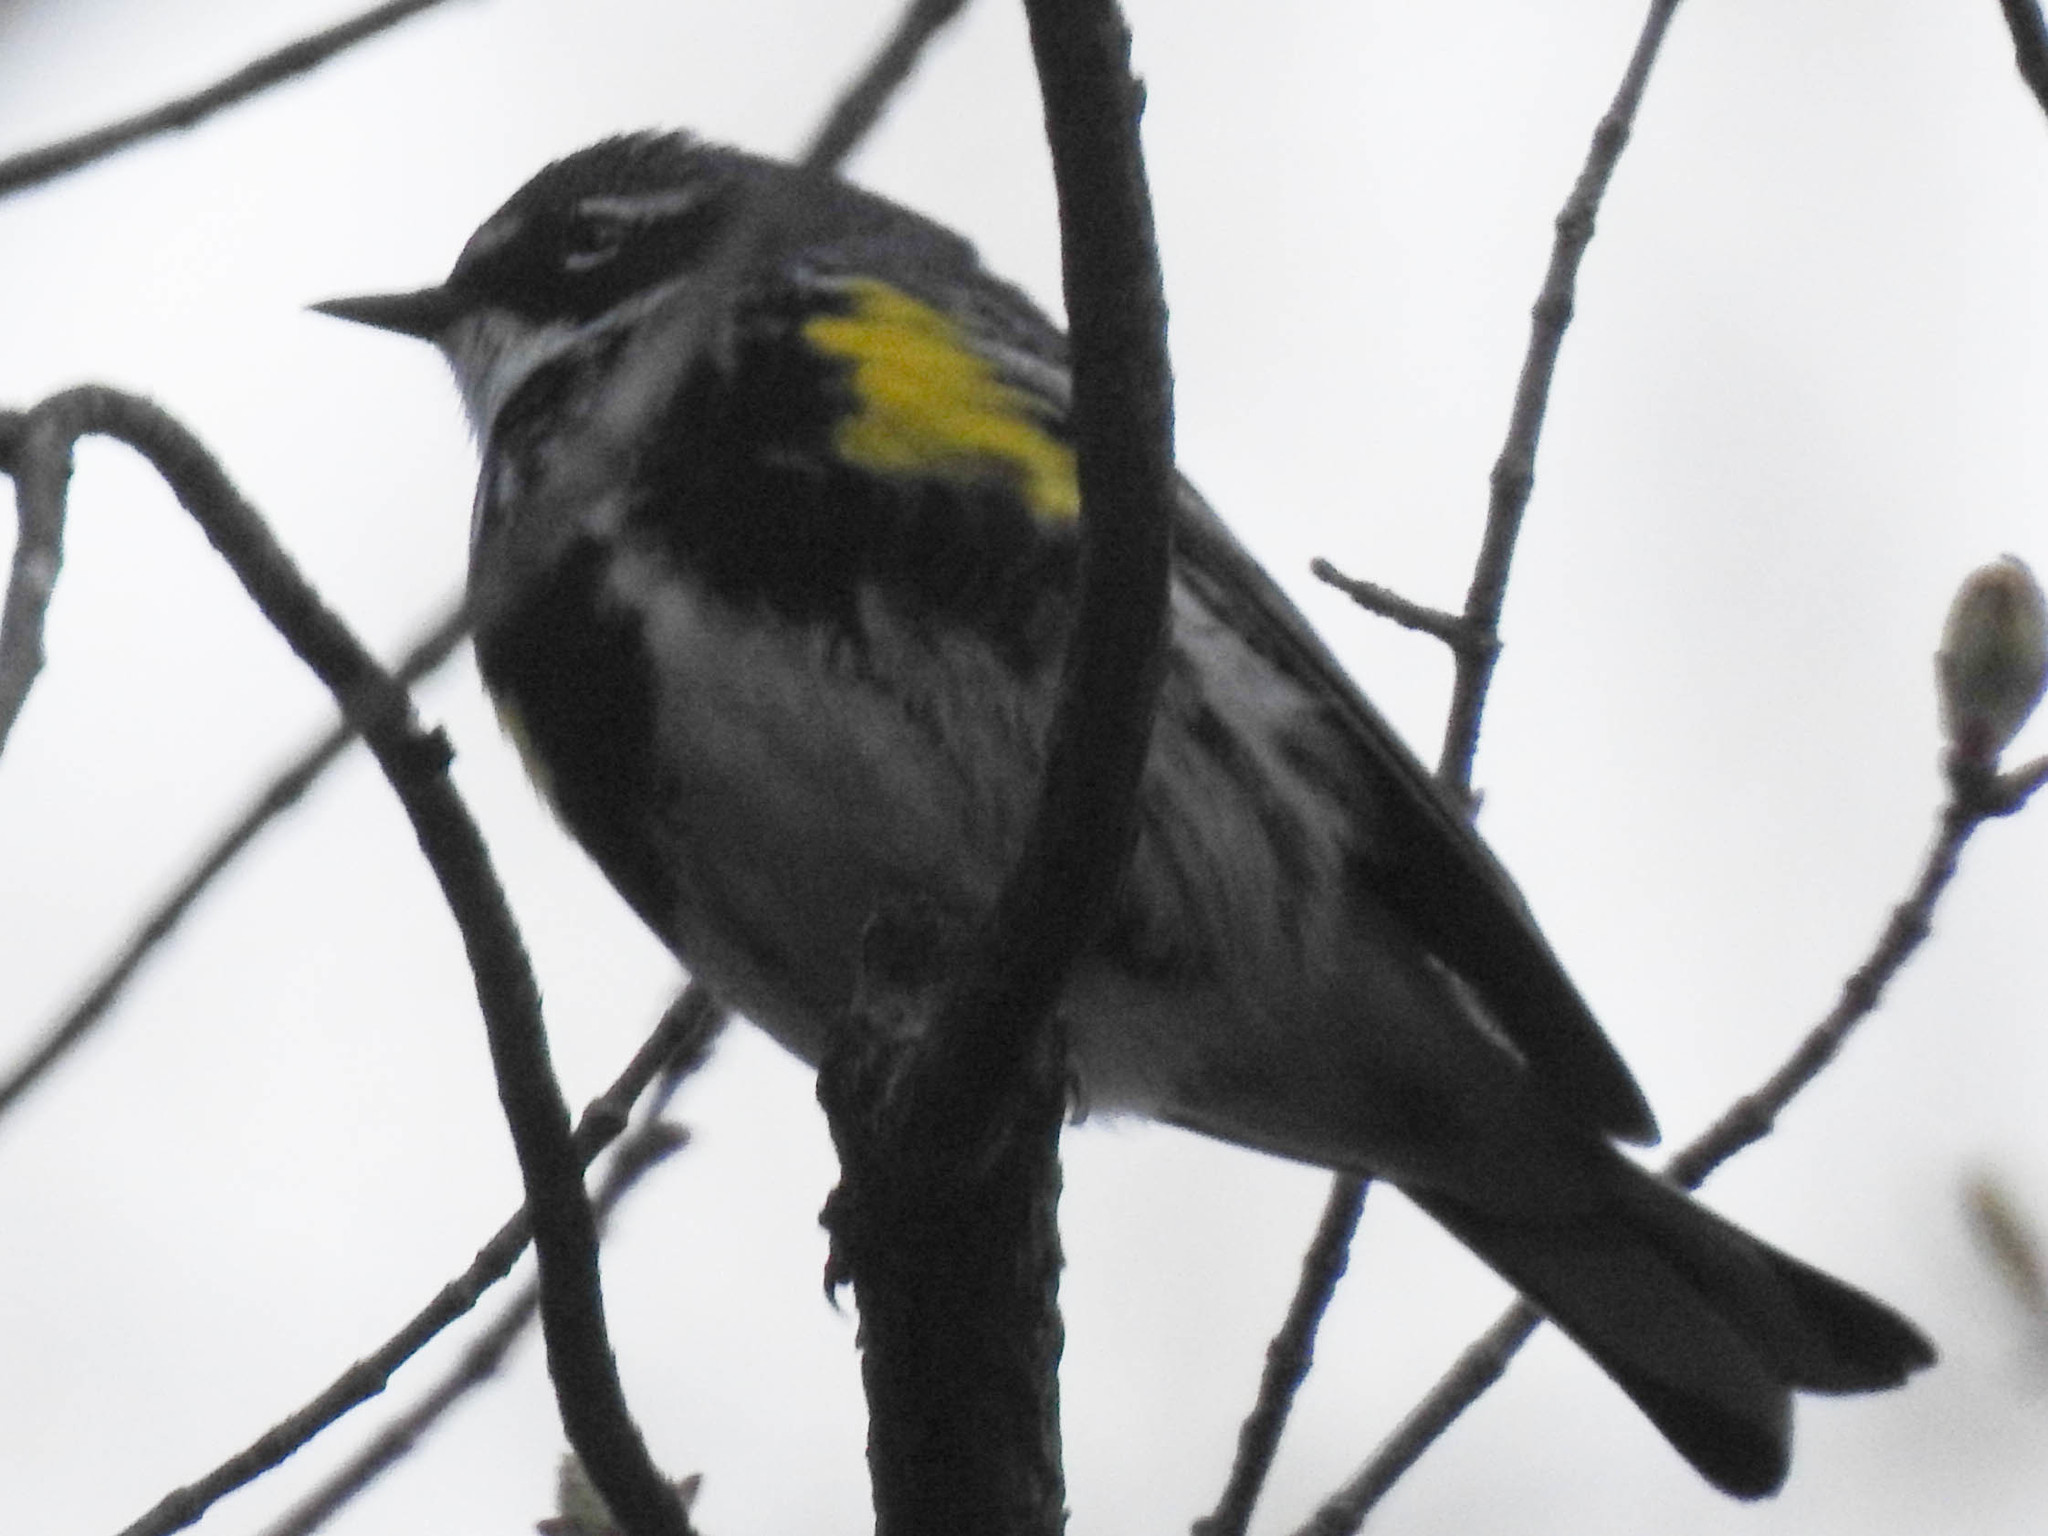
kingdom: Animalia
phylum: Chordata
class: Aves
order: Passeriformes
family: Parulidae
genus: Setophaga
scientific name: Setophaga coronata
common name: Myrtle warbler
